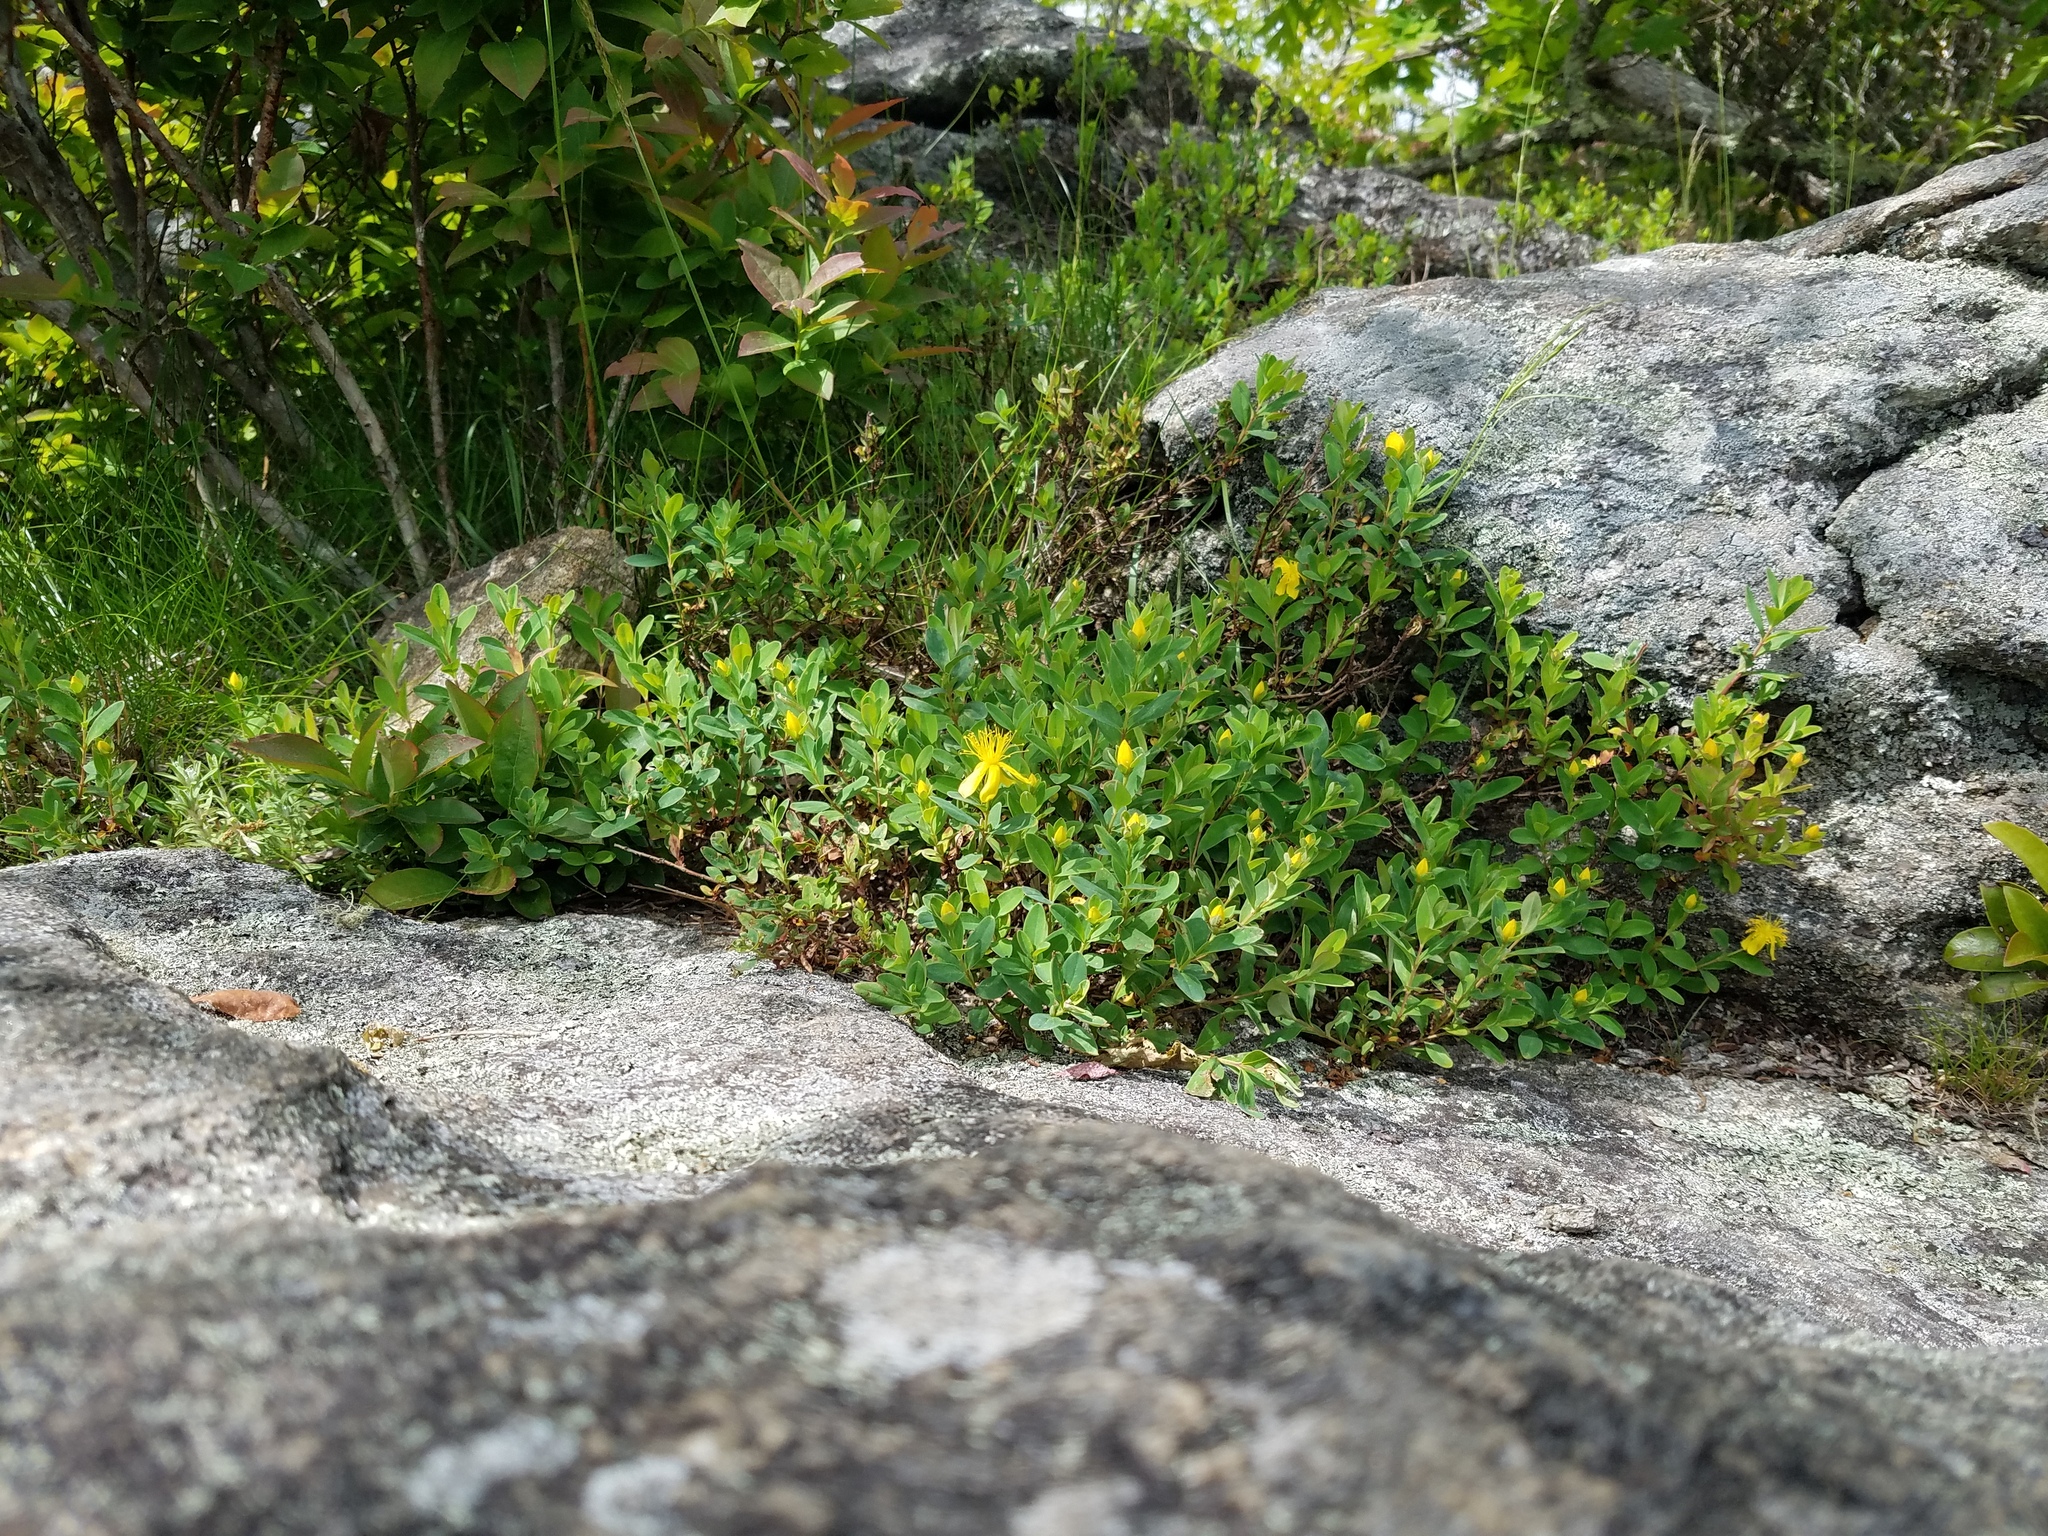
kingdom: Plantae
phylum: Tracheophyta
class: Magnoliopsida
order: Malpighiales
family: Hypericaceae
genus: Hypericum
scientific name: Hypericum buckleyi
